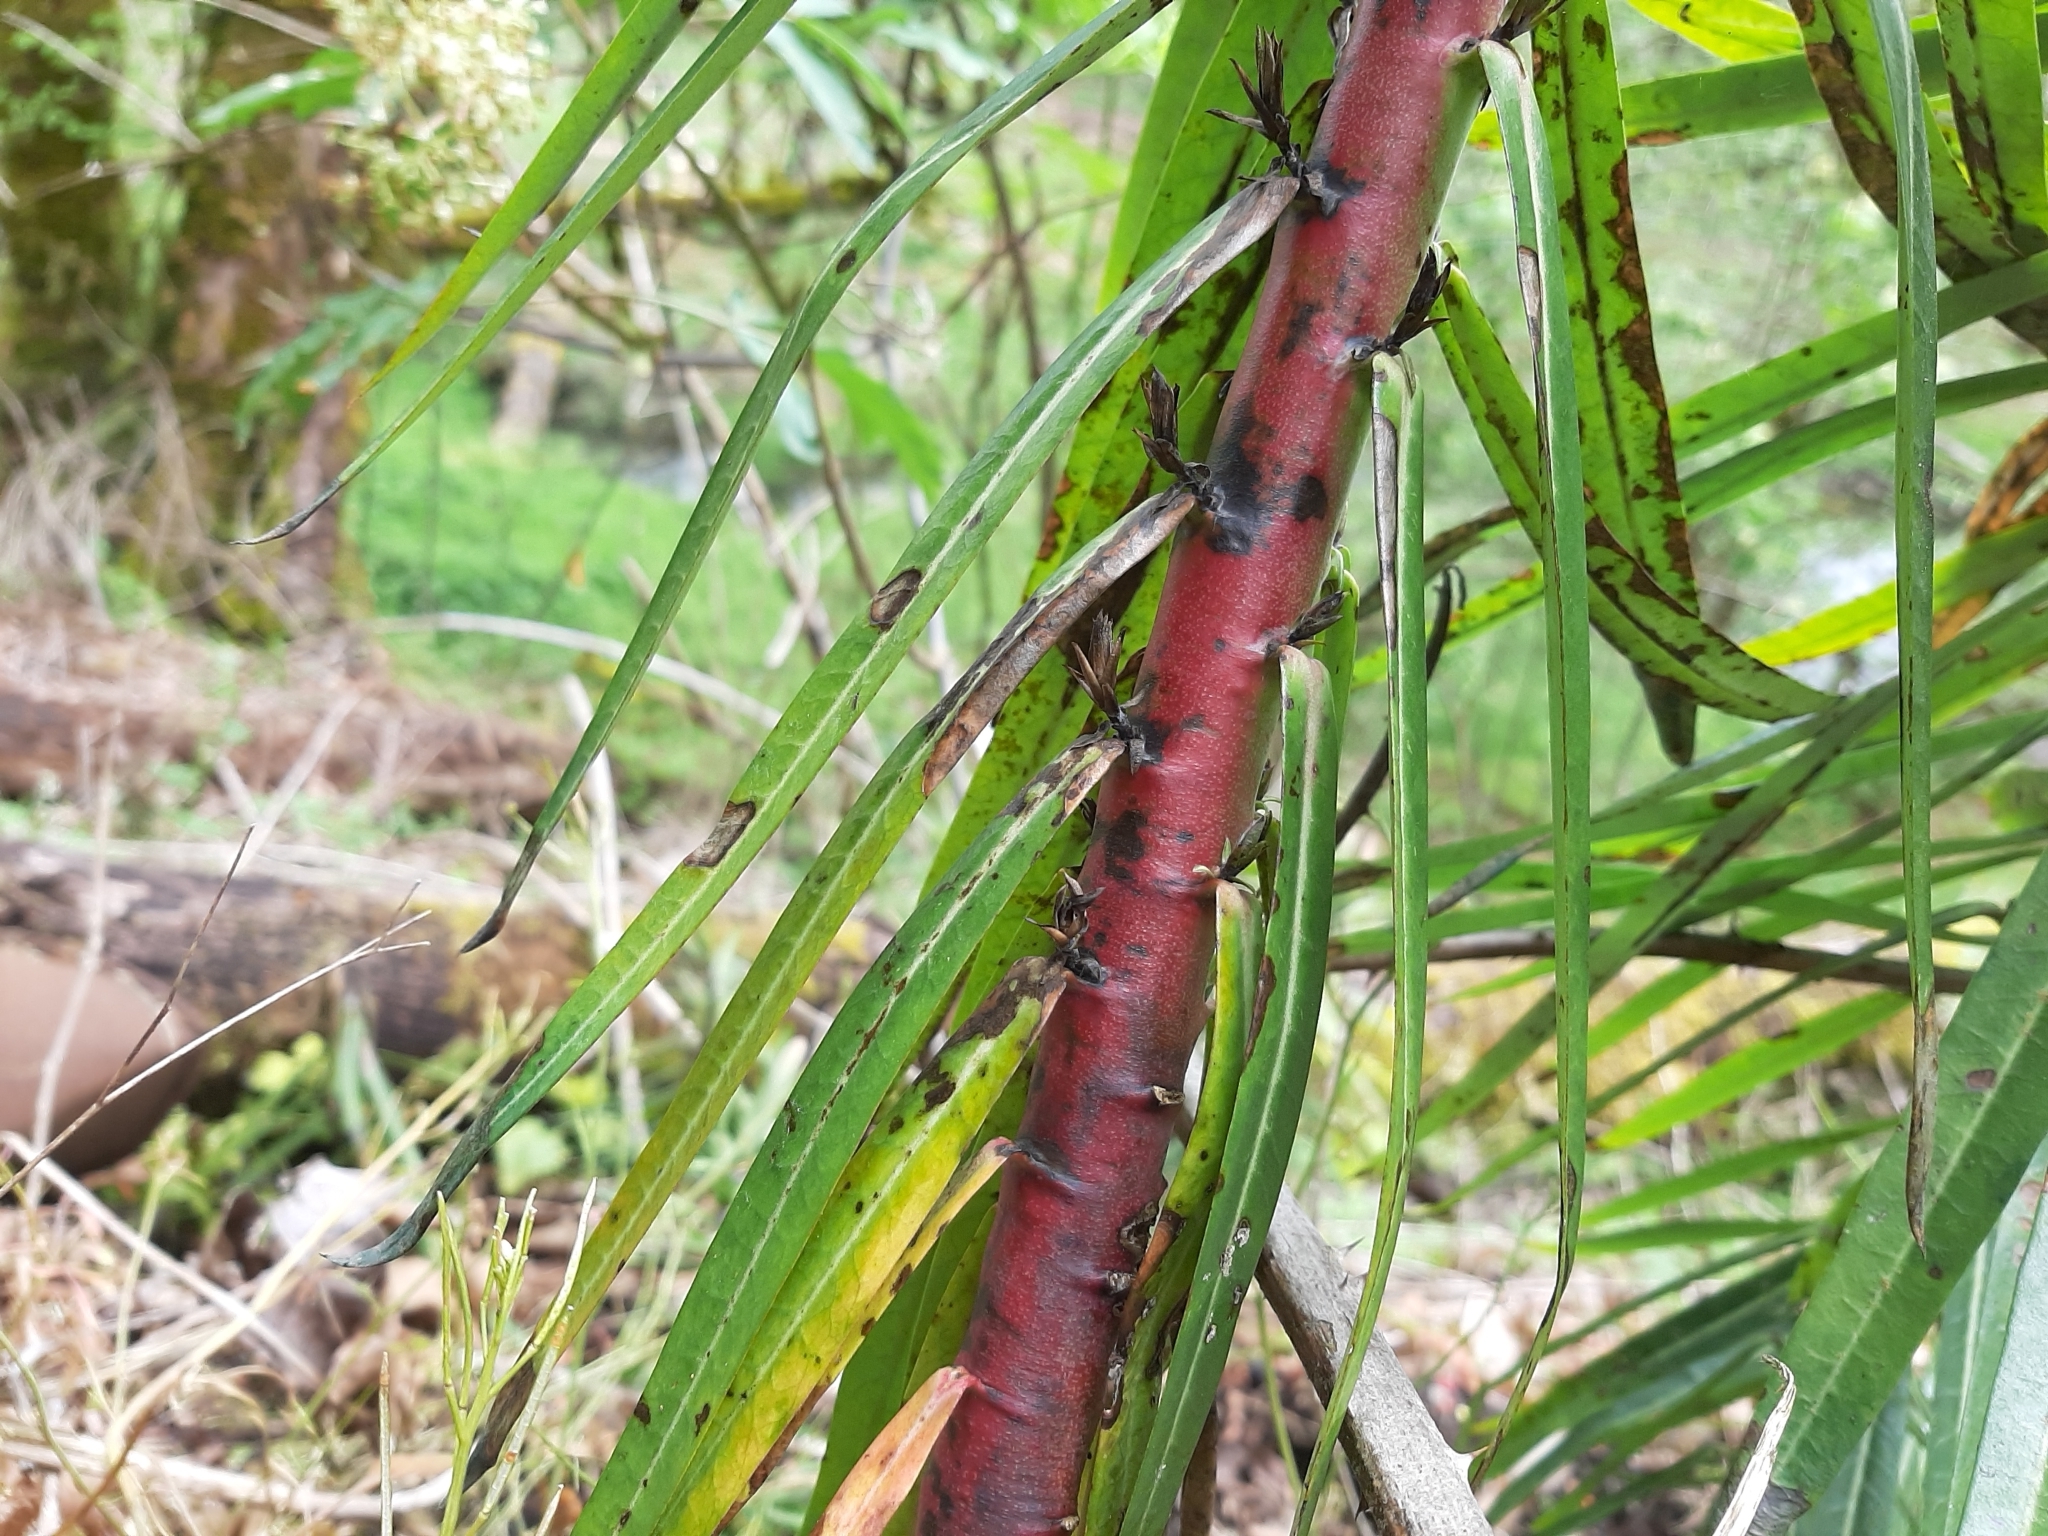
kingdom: Plantae
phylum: Tracheophyta
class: Magnoliopsida
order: Malpighiales
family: Euphorbiaceae
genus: Euphorbia
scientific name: Euphorbia lathyris
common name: Caper spurge
